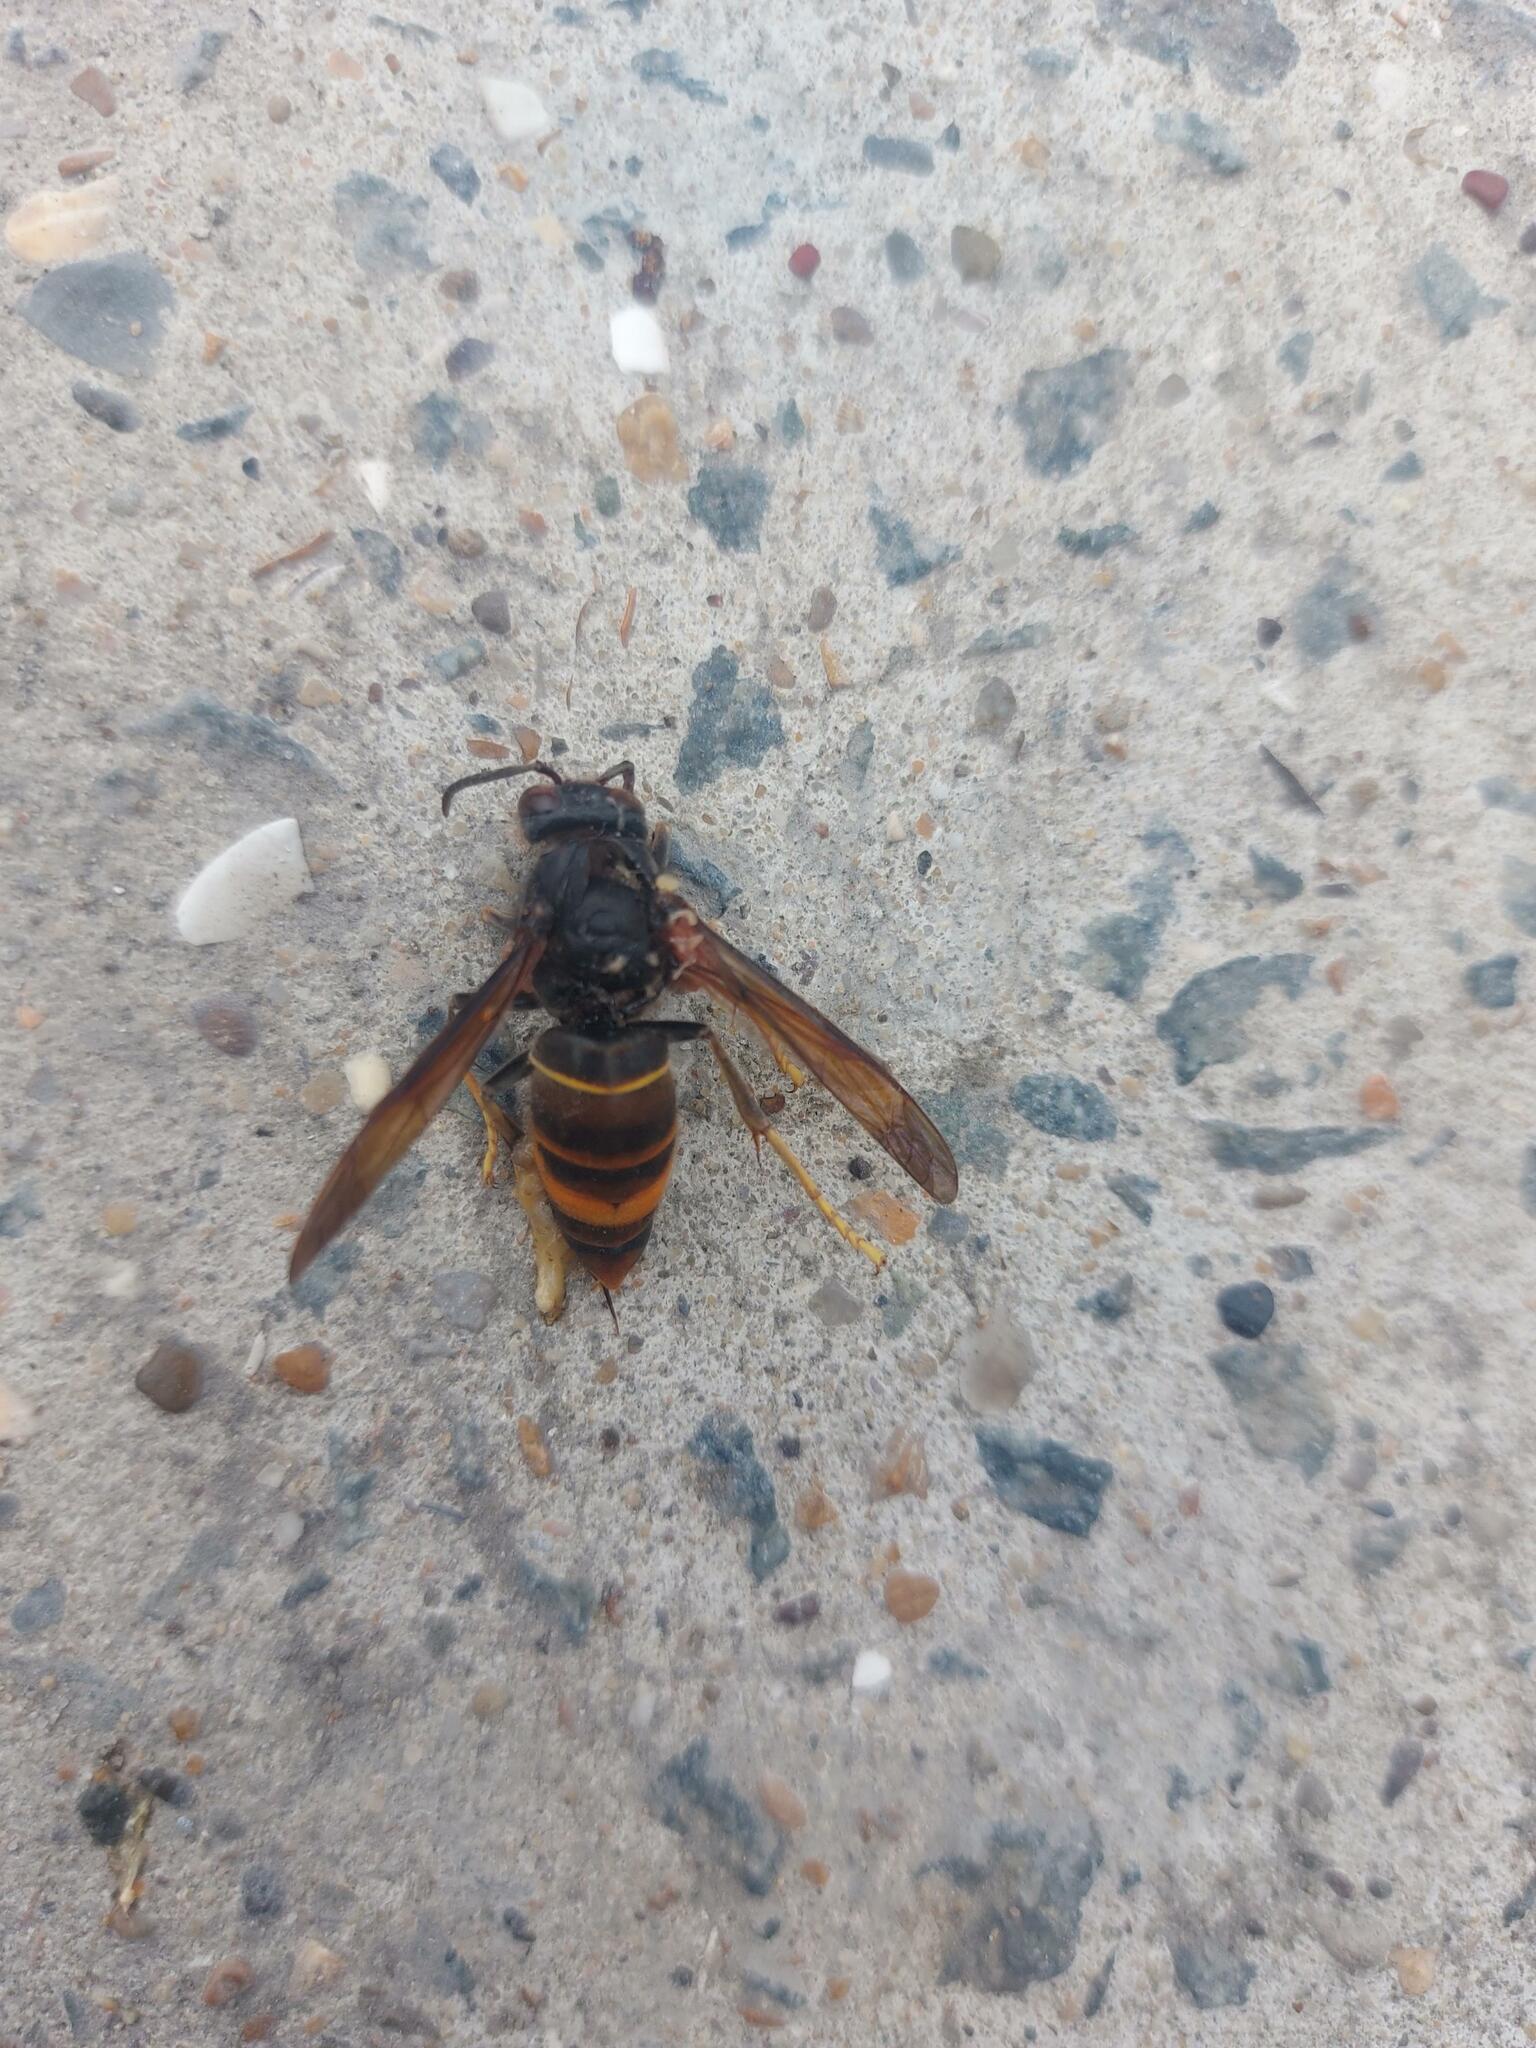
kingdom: Animalia
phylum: Arthropoda
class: Insecta
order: Hymenoptera
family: Vespidae
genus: Vespa
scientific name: Vespa velutina
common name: Asian hornet
